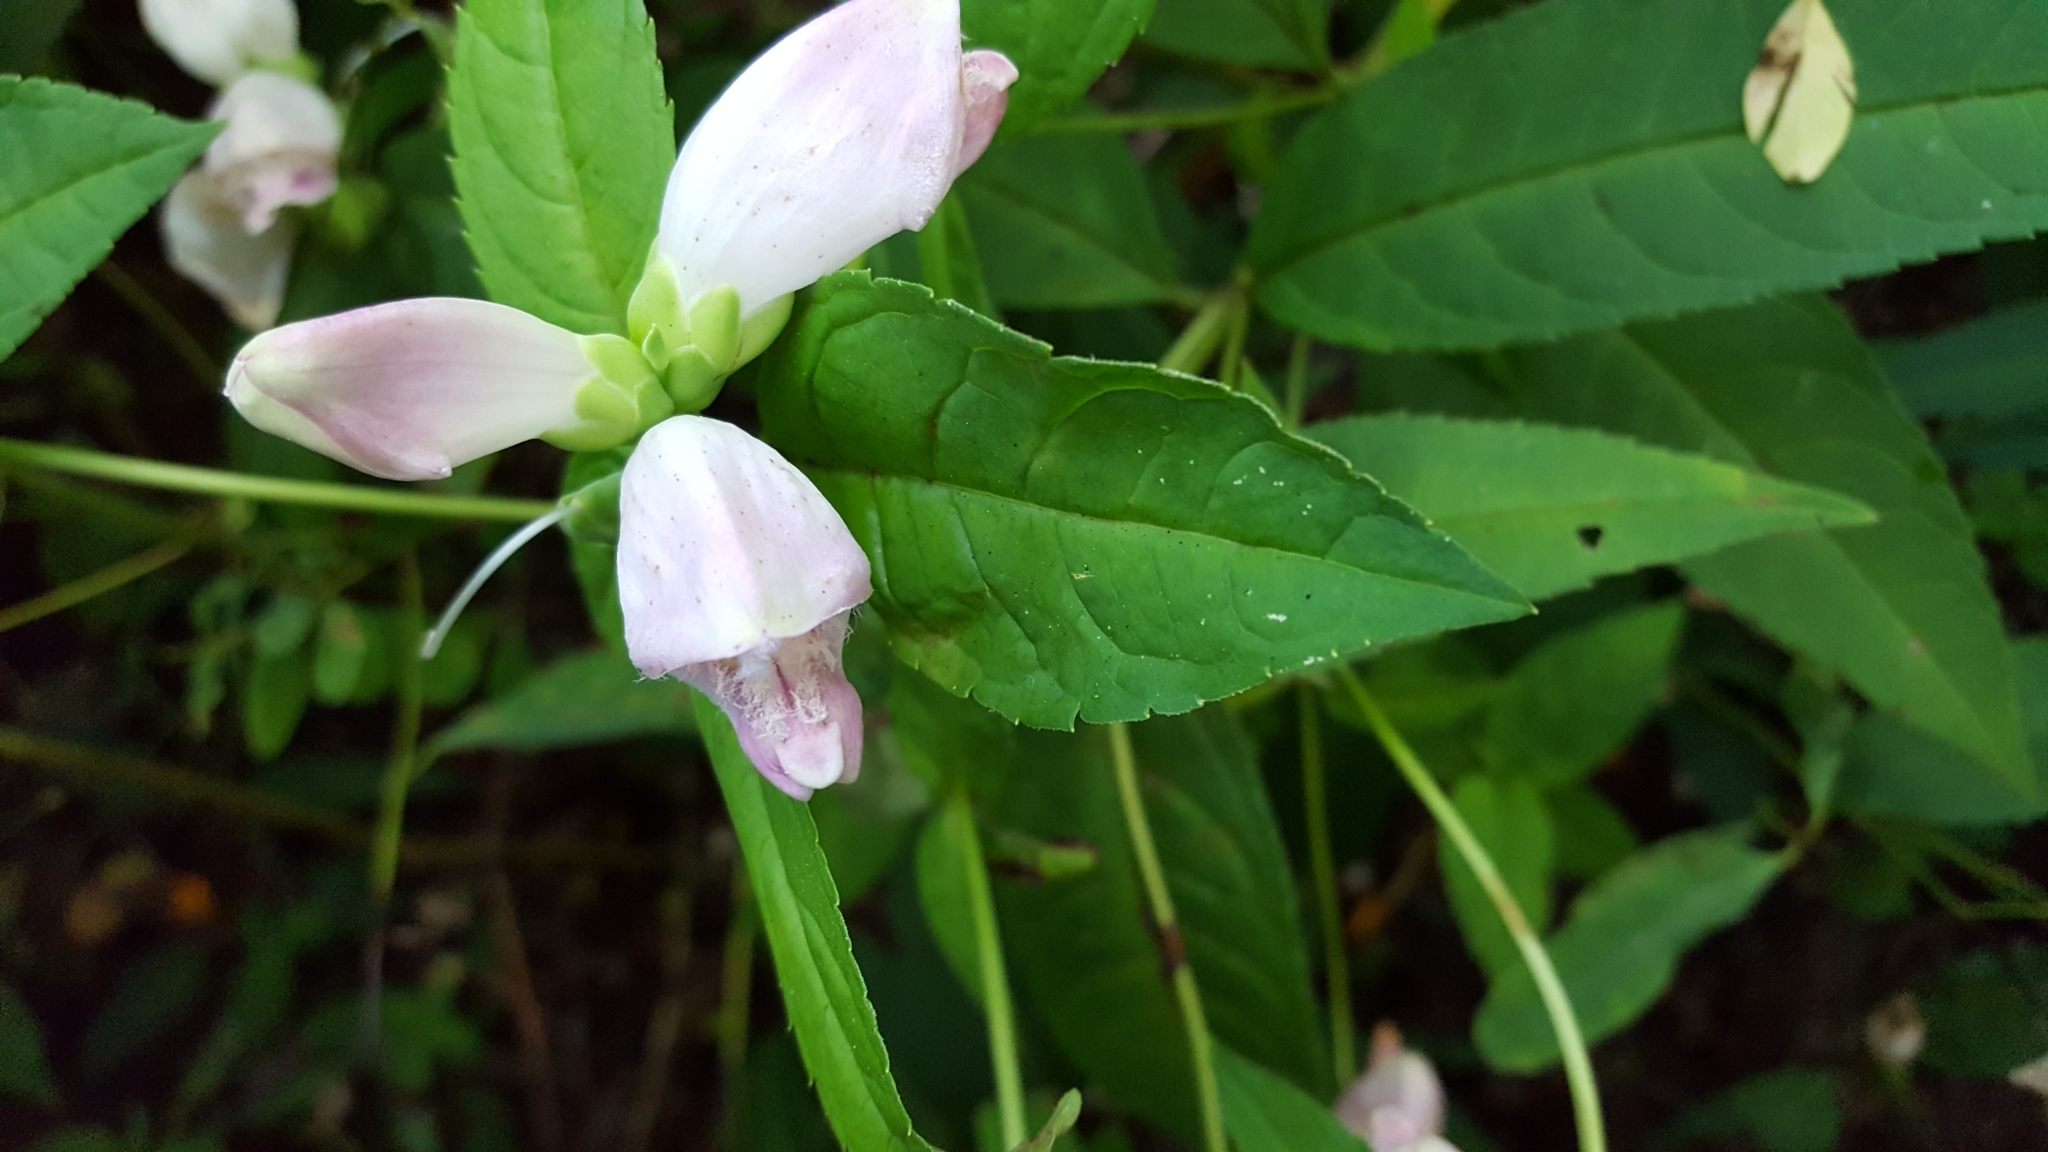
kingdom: Plantae
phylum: Tracheophyta
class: Magnoliopsida
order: Lamiales
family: Plantaginaceae
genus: Chelone
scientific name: Chelone glabra
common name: Snakehead
